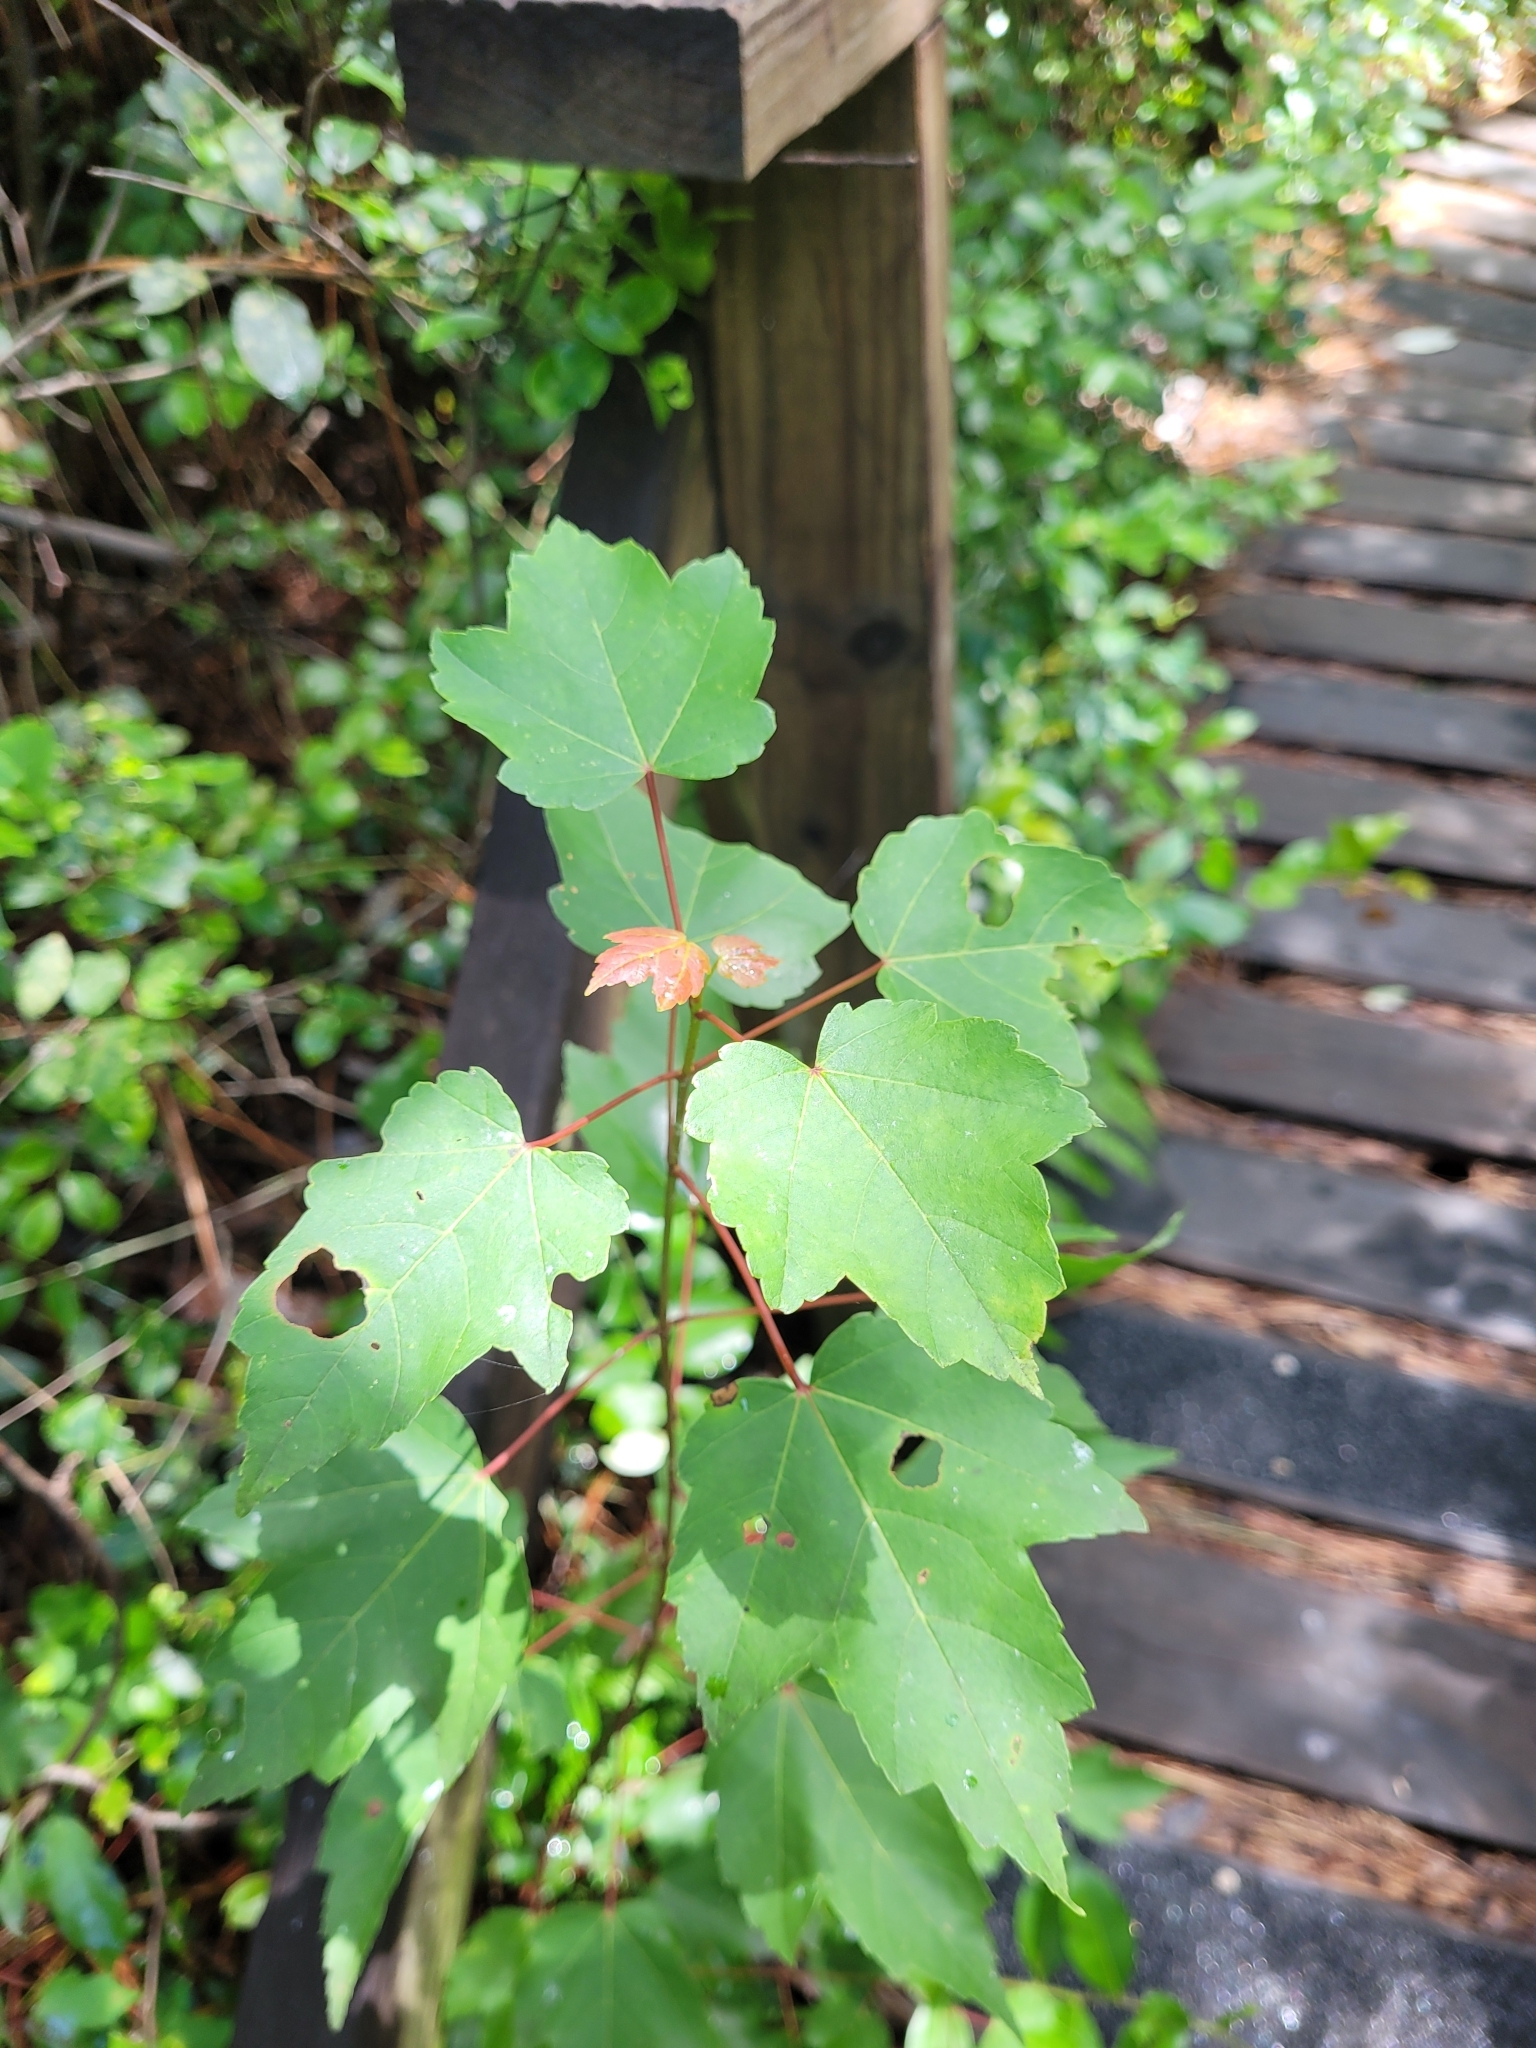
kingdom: Plantae
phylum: Tracheophyta
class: Magnoliopsida
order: Sapindales
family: Sapindaceae
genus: Acer
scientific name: Acer rubrum
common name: Red maple
